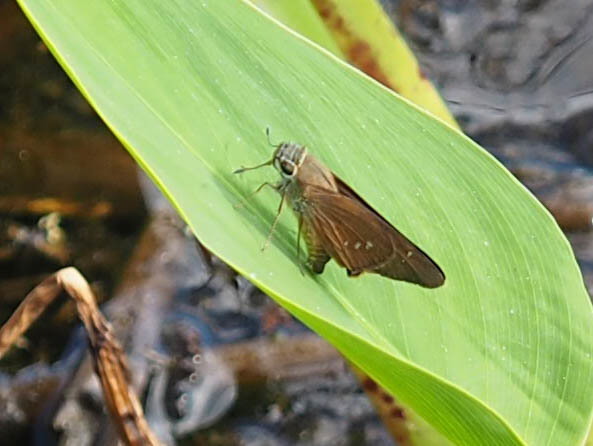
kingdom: Animalia
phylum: Arthropoda
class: Insecta
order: Lepidoptera
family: Hesperiidae
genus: Calpodes
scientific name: Calpodes ethlius
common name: Brazilian skipper
